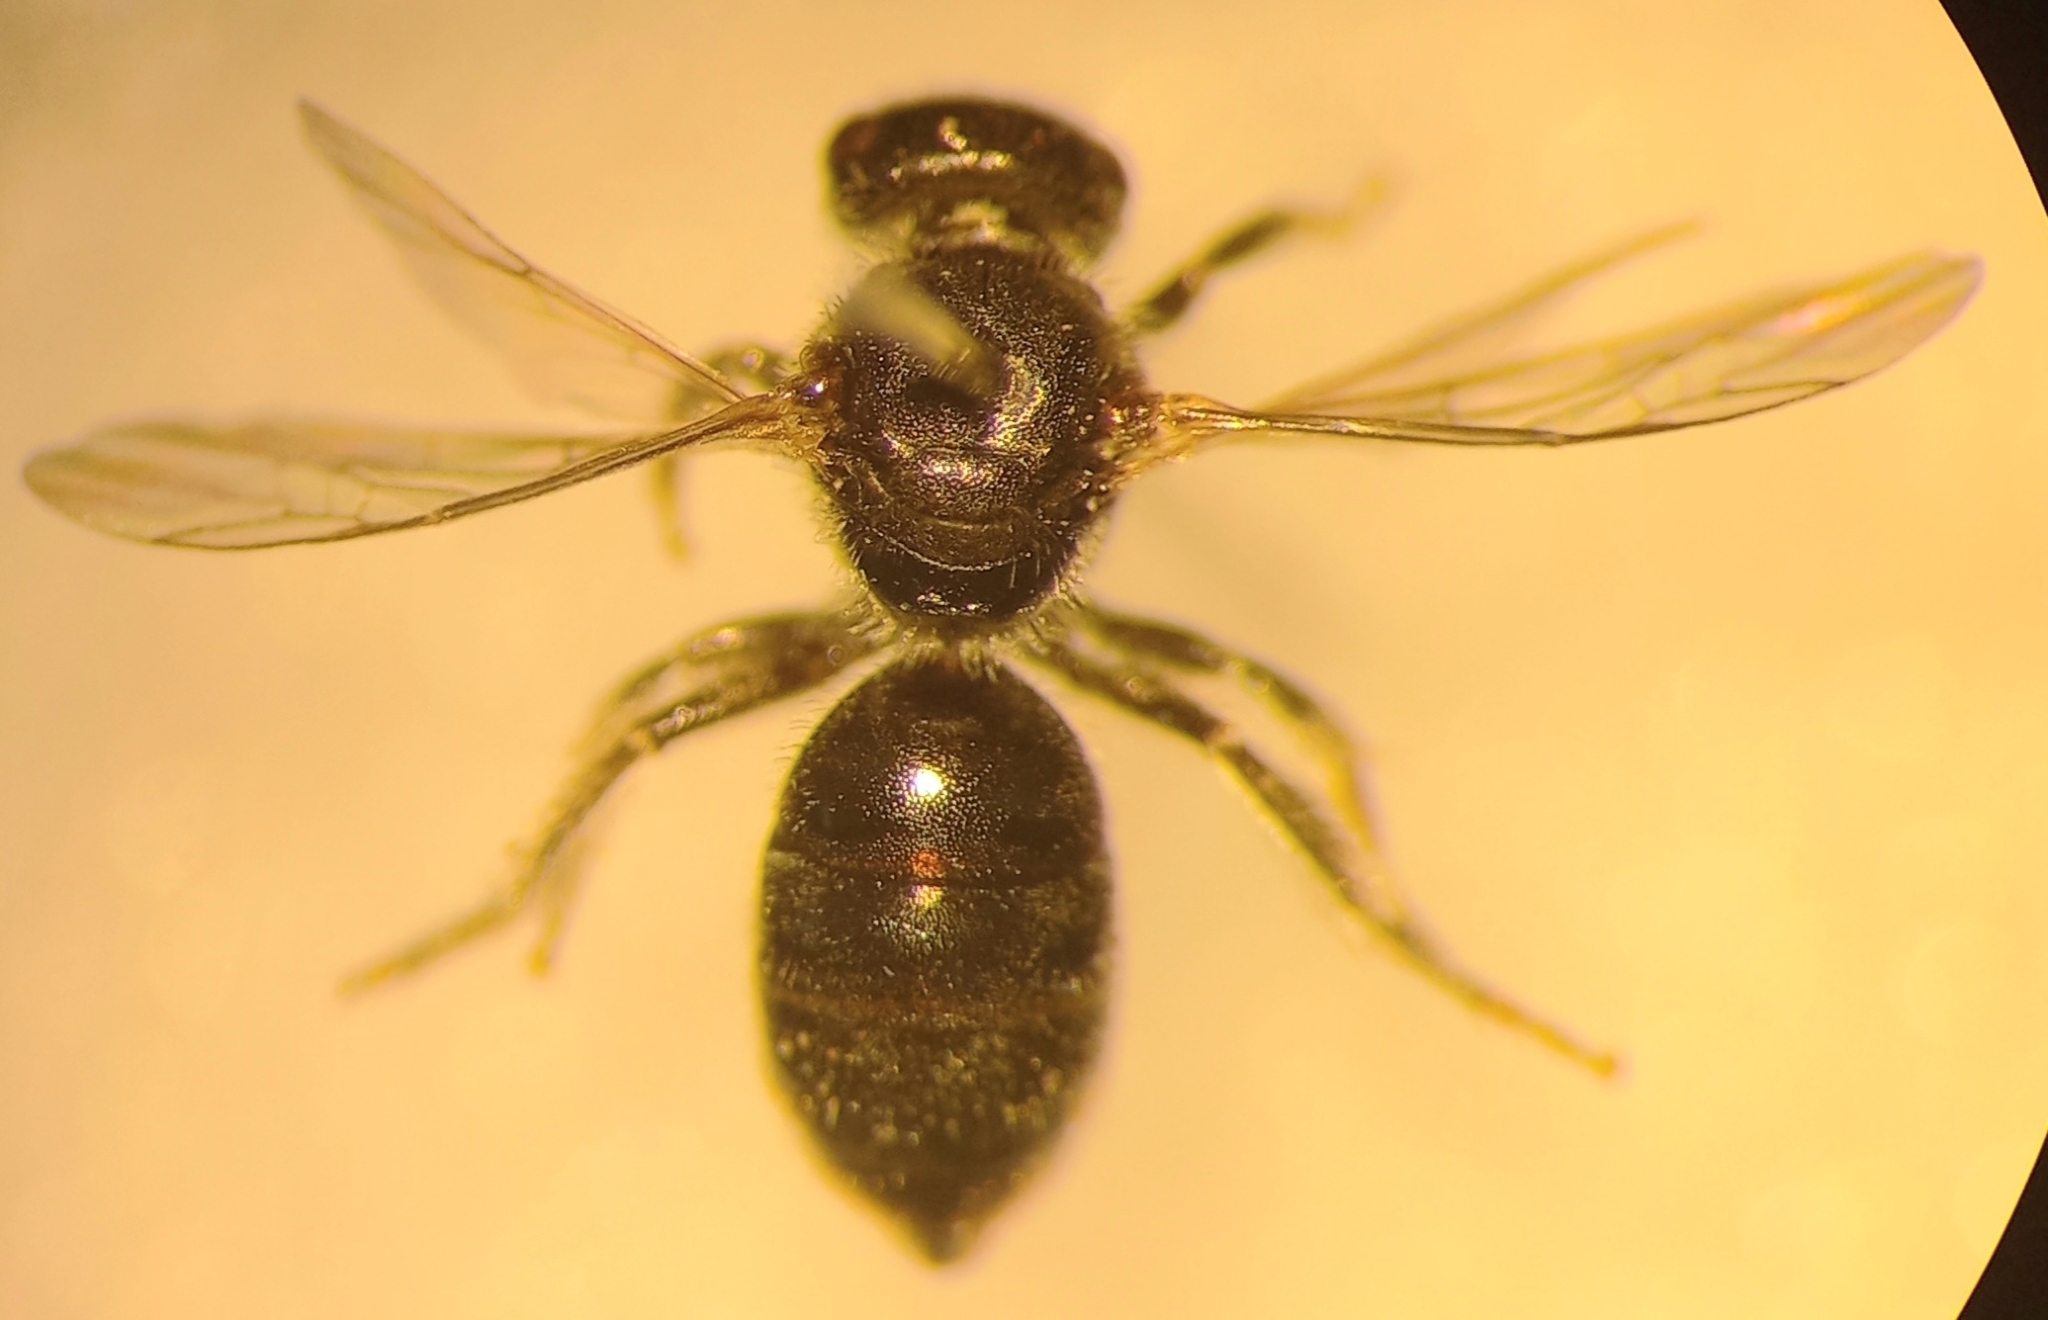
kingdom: Animalia
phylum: Arthropoda
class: Insecta
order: Hymenoptera
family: Halictidae
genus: Lasioglossum
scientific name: Lasioglossum griseolum
